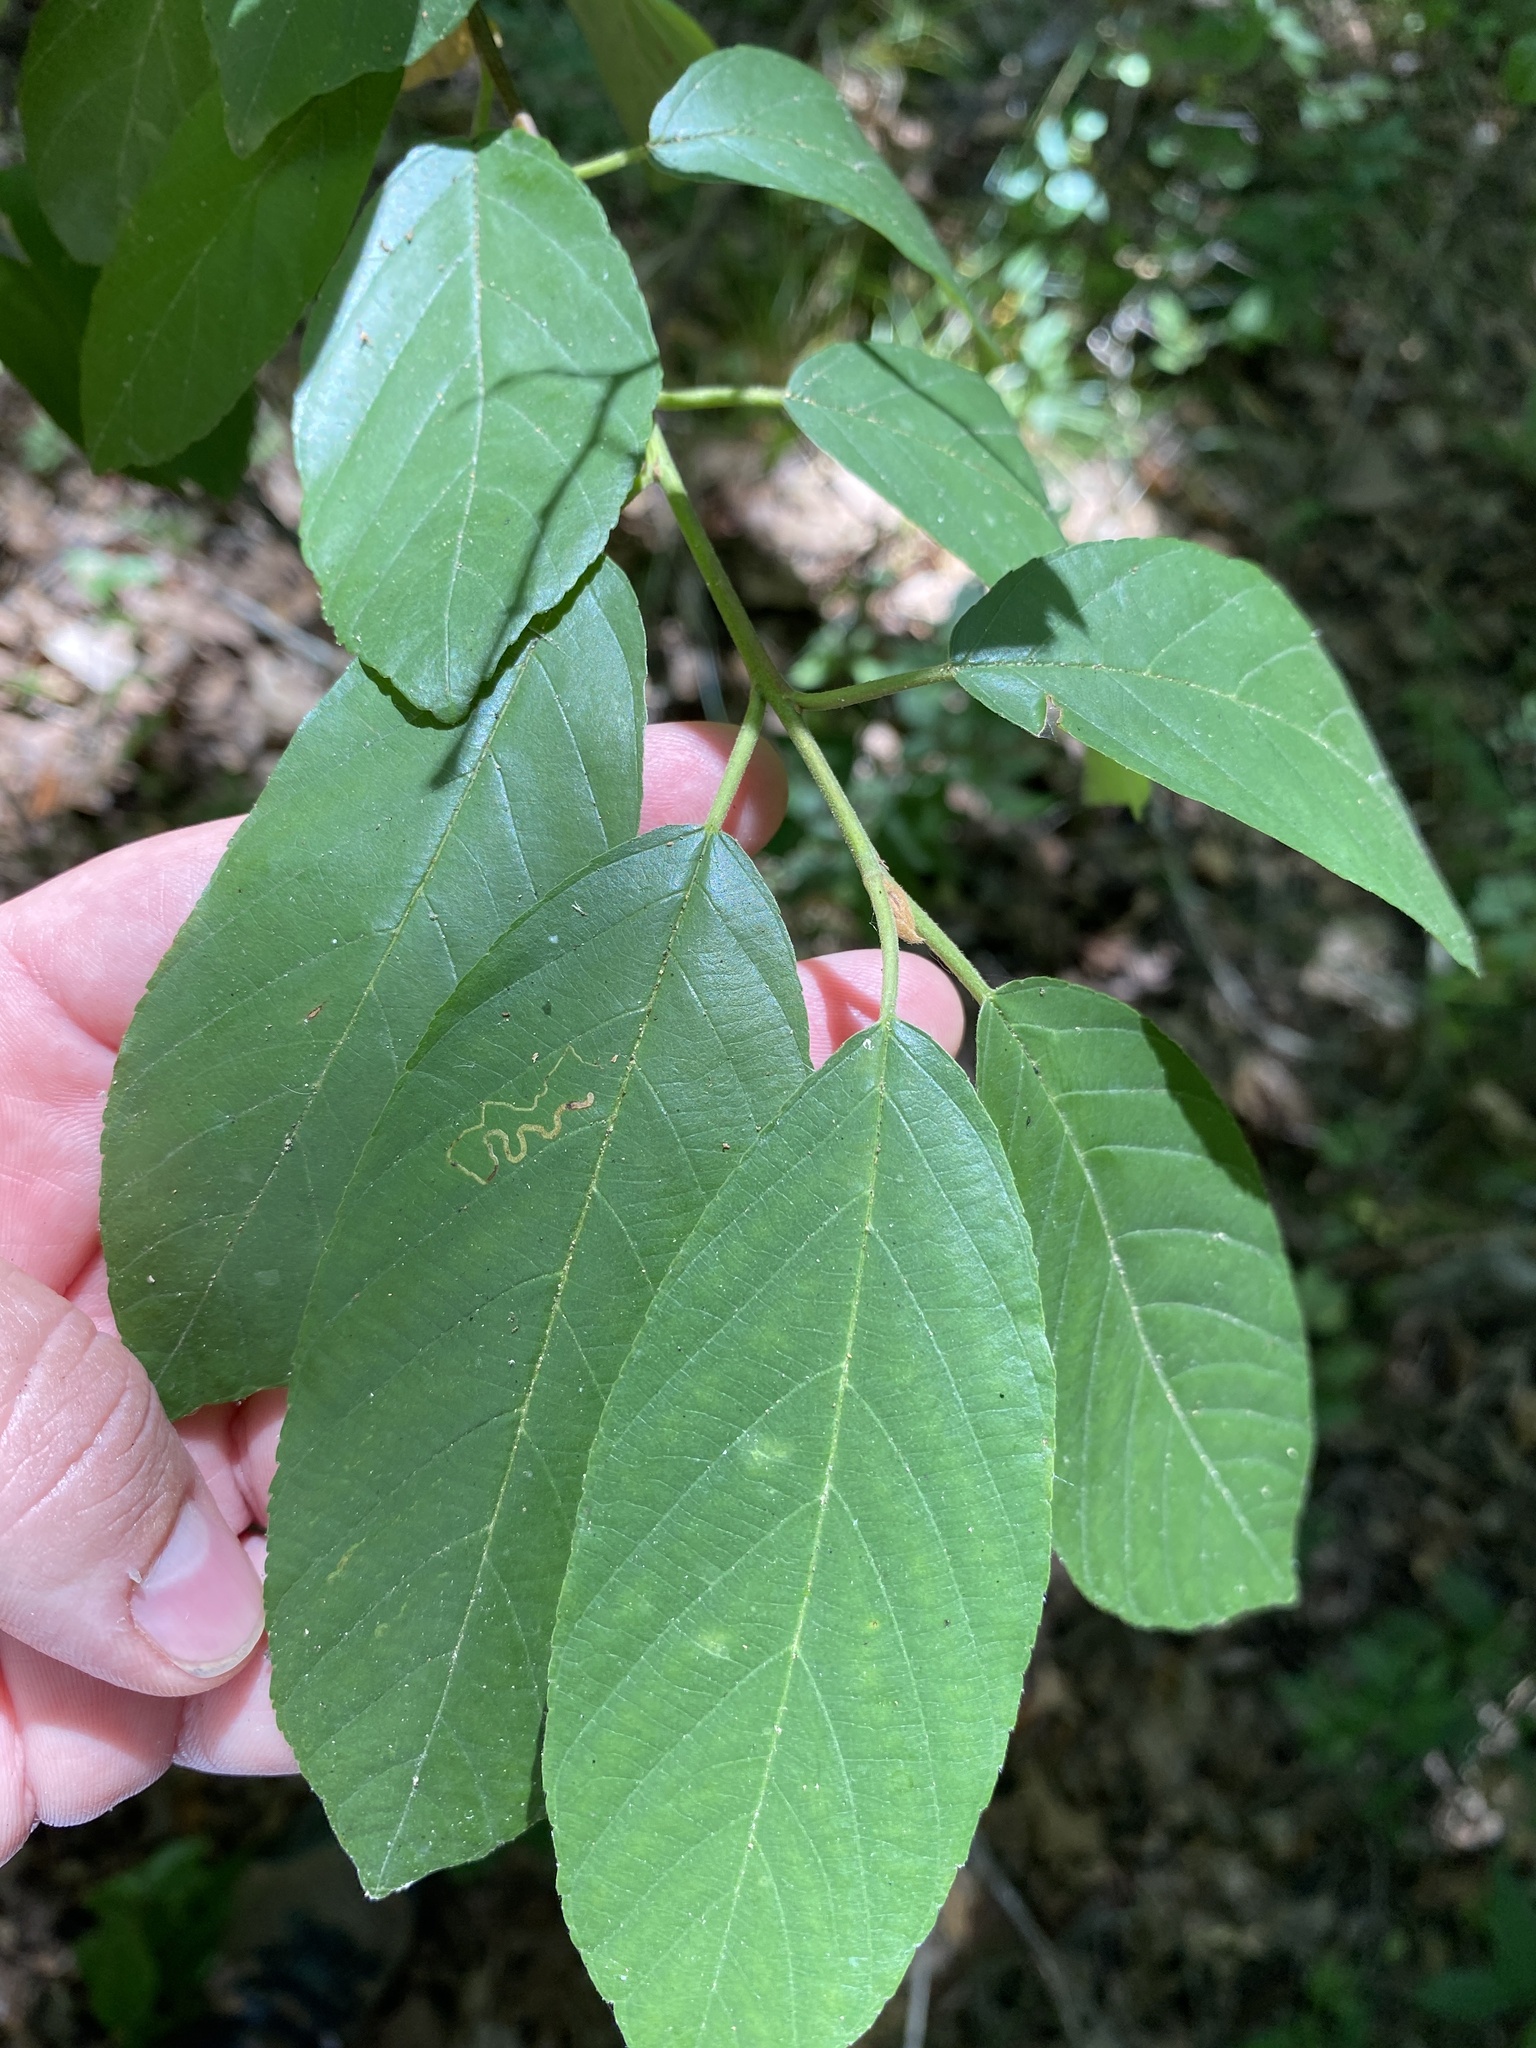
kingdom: Plantae
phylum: Tracheophyta
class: Magnoliopsida
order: Rosales
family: Rhamnaceae
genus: Frangula
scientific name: Frangula caroliniana
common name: Carolina buckthorn
